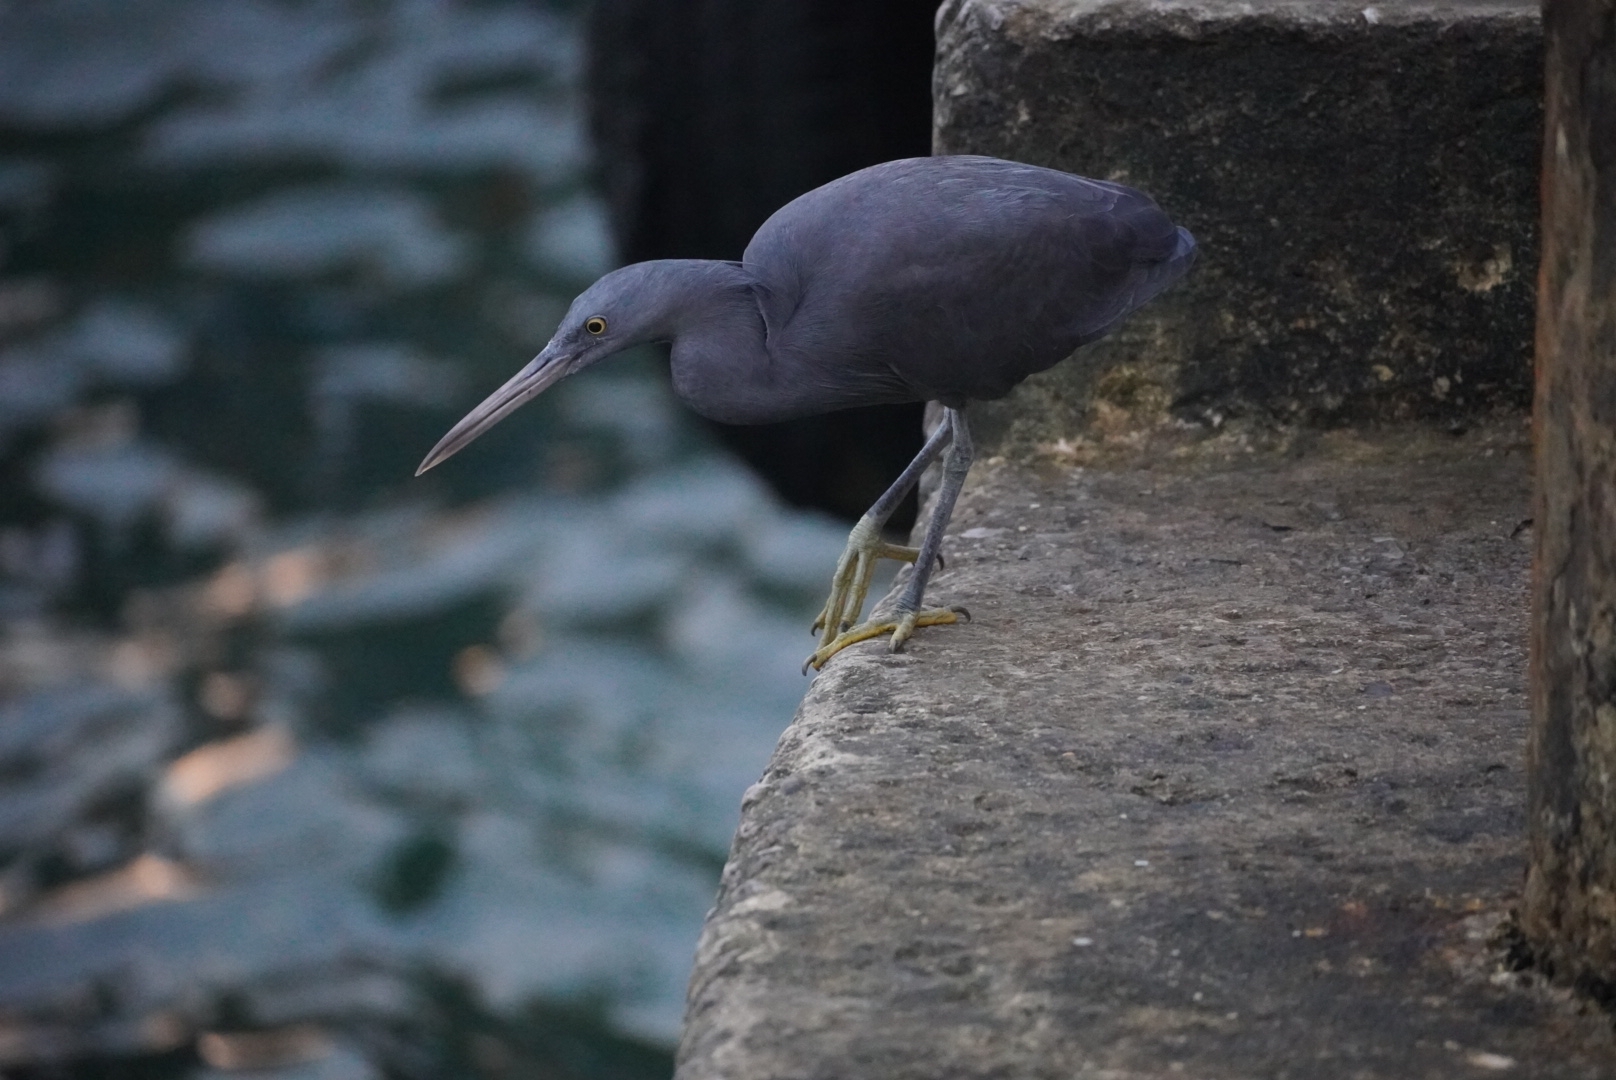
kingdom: Animalia
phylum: Chordata
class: Aves
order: Pelecaniformes
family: Ardeidae
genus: Egretta
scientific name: Egretta sacra
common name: Pacific reef heron
